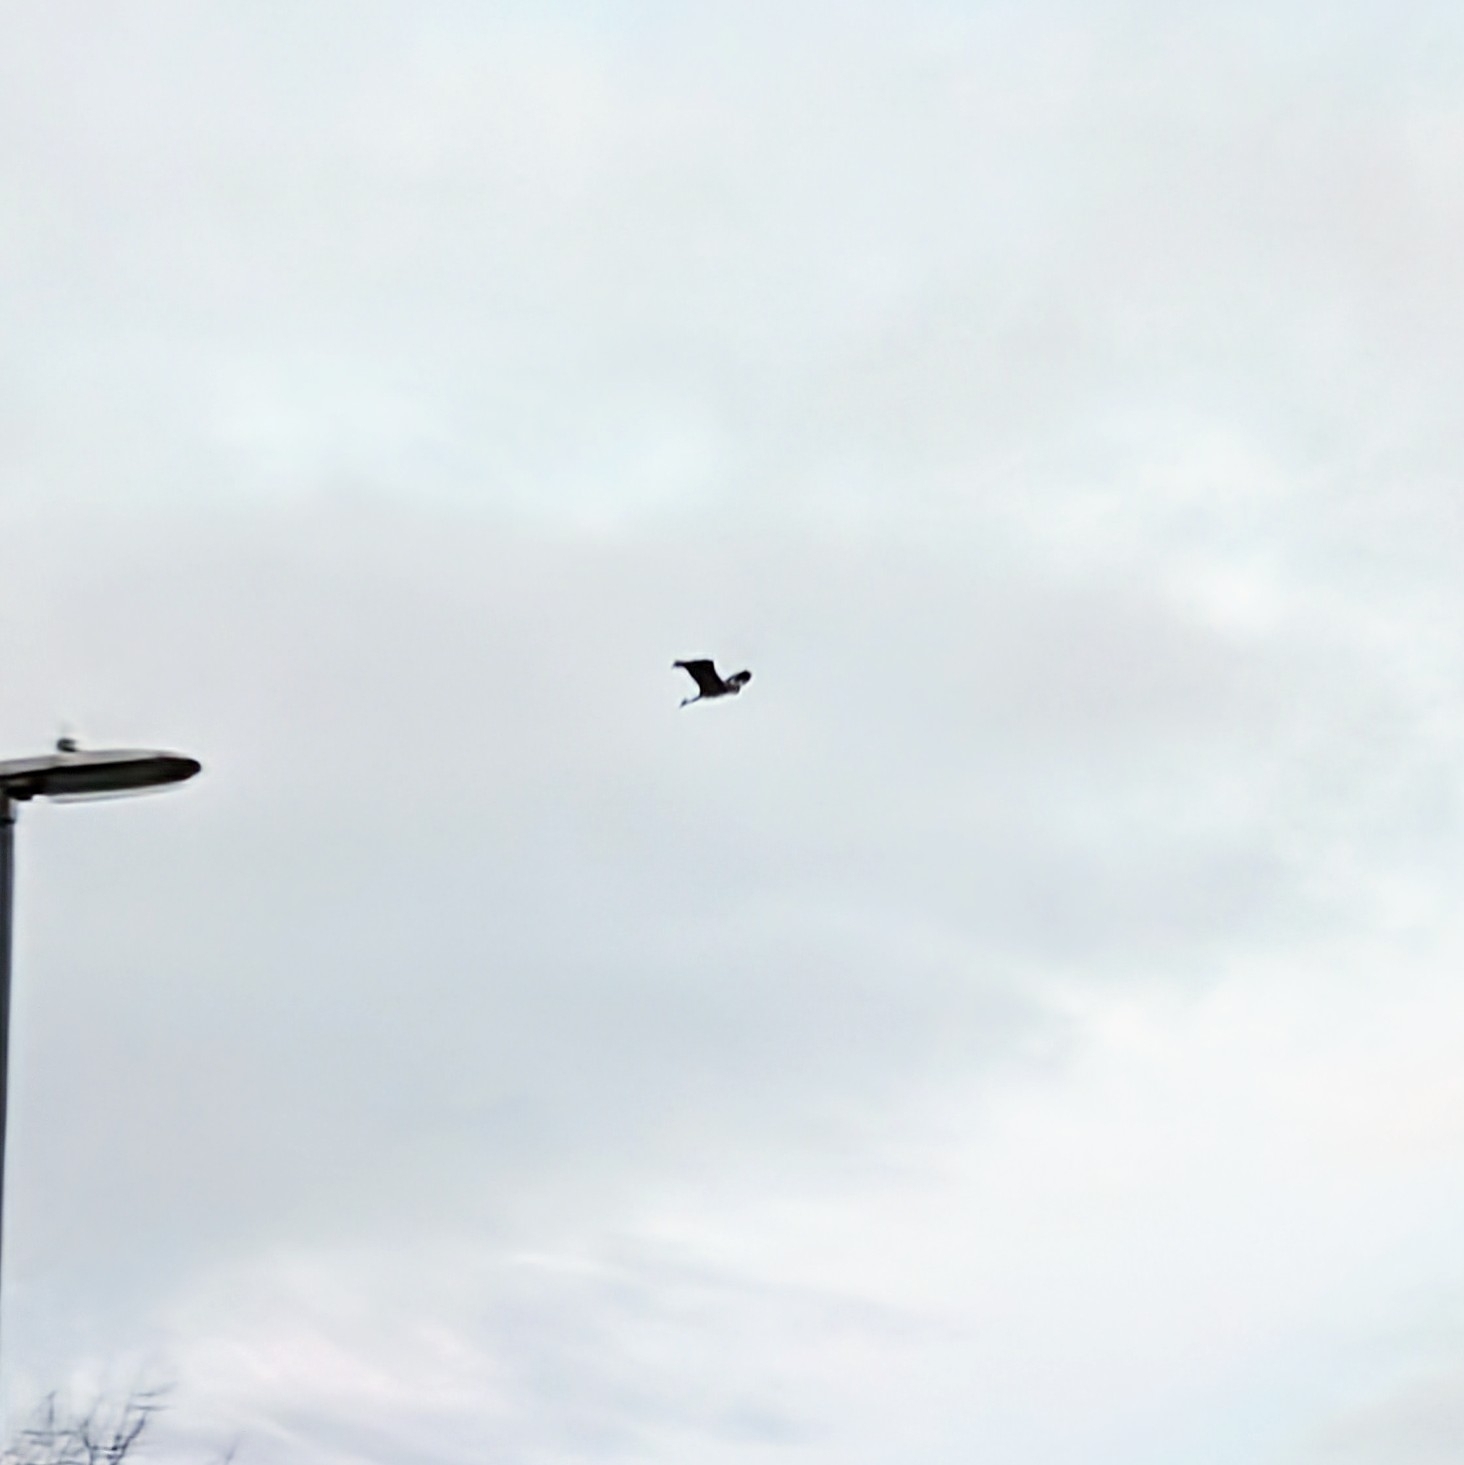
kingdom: Animalia
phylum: Chordata
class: Aves
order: Pelecaniformes
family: Ardeidae
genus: Ardea
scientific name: Ardea cinerea
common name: Grey heron
